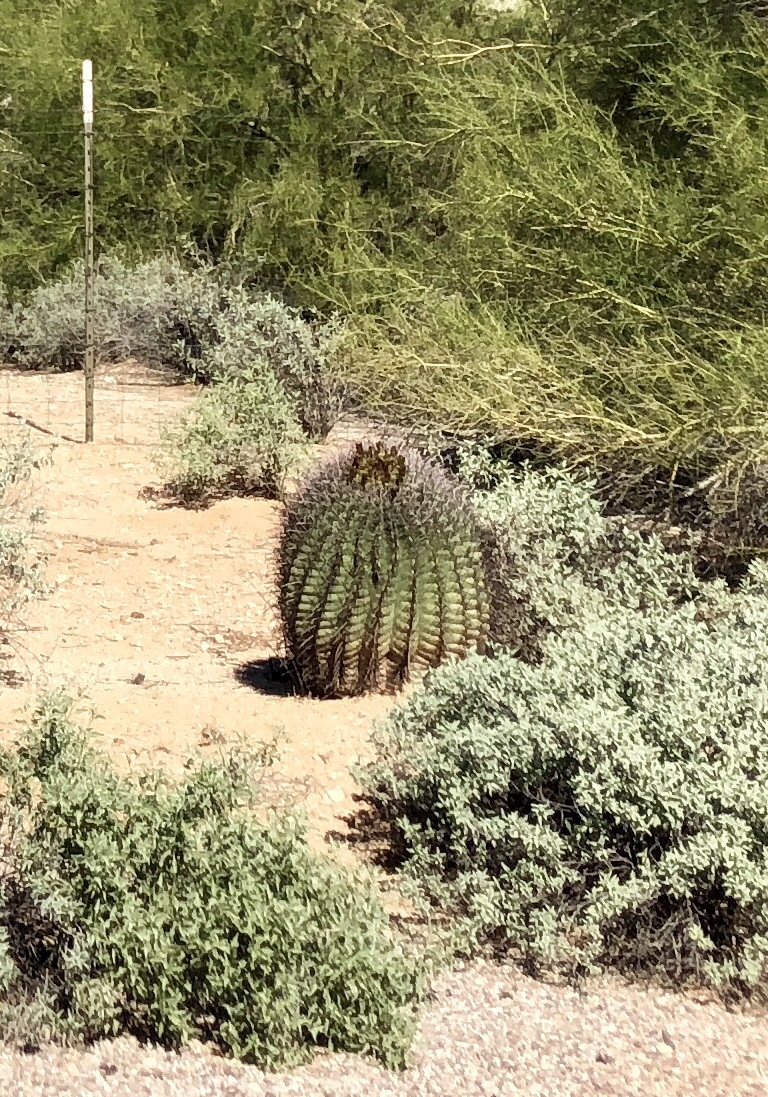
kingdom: Plantae
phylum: Tracheophyta
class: Magnoliopsida
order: Caryophyllales
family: Cactaceae
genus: Ferocactus
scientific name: Ferocactus wislizeni
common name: Candy barrel cactus
